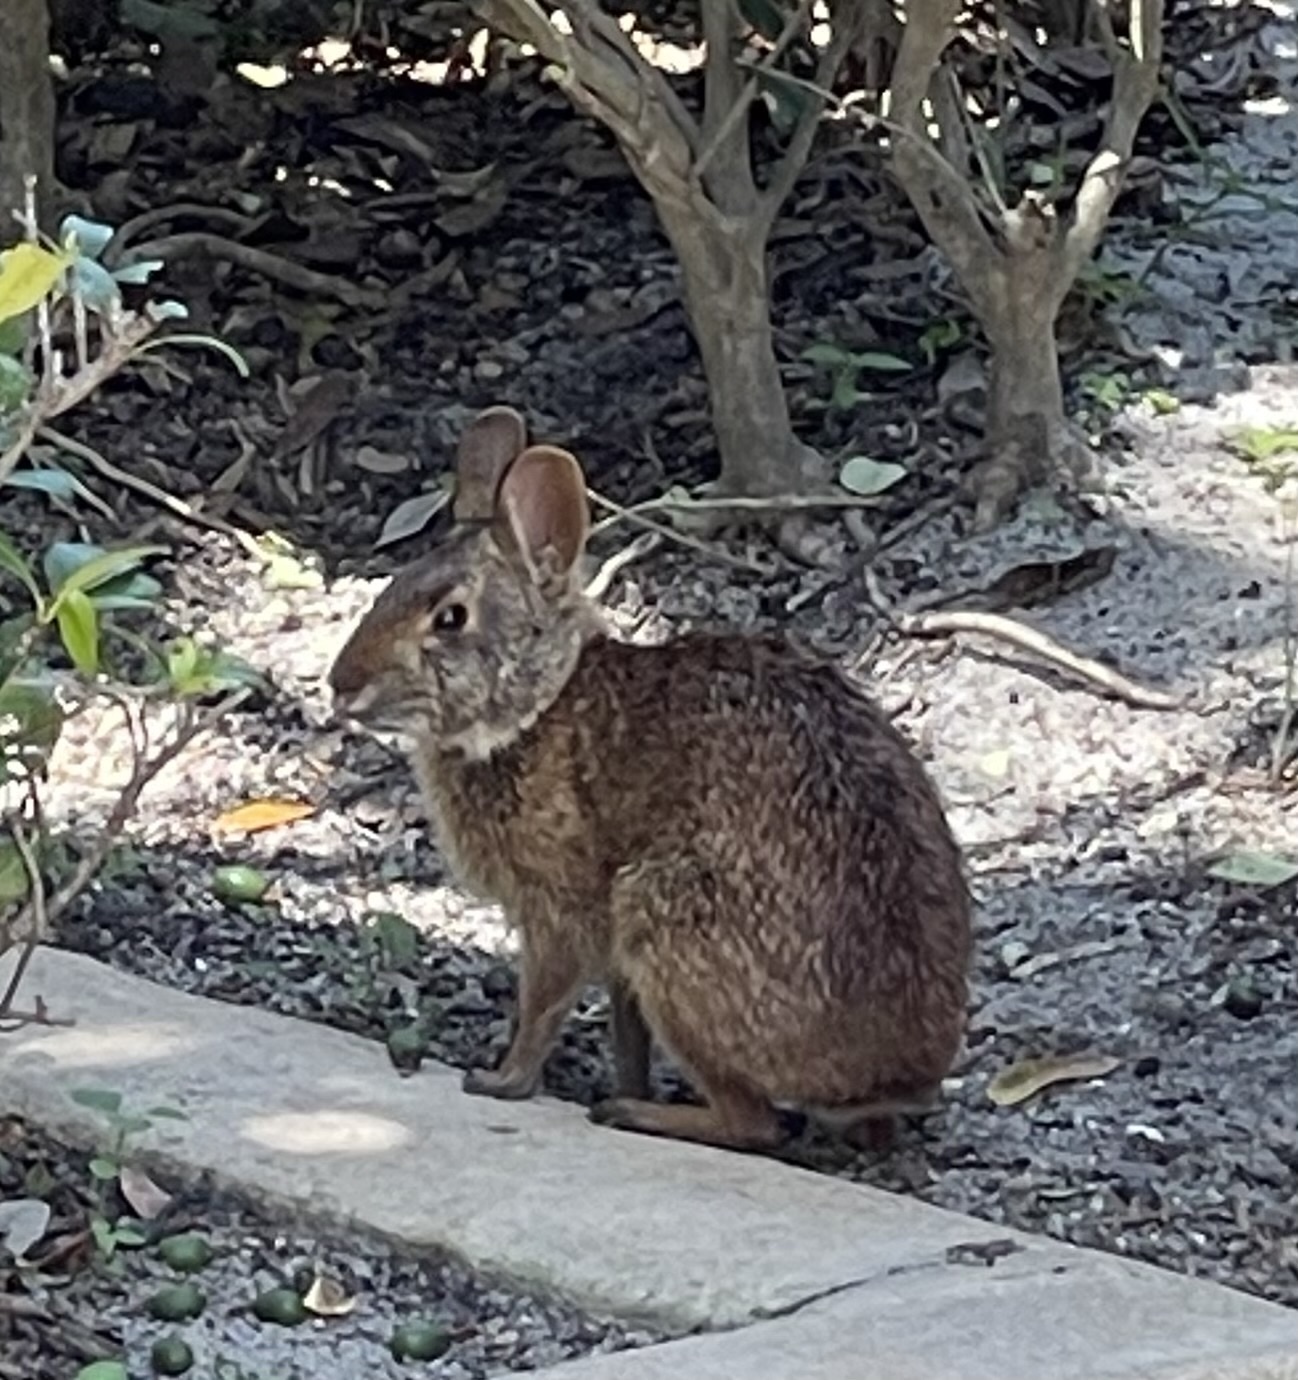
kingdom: Animalia
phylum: Chordata
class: Mammalia
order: Lagomorpha
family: Leporidae
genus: Sylvilagus
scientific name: Sylvilagus palustris
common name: Marsh rabbit
